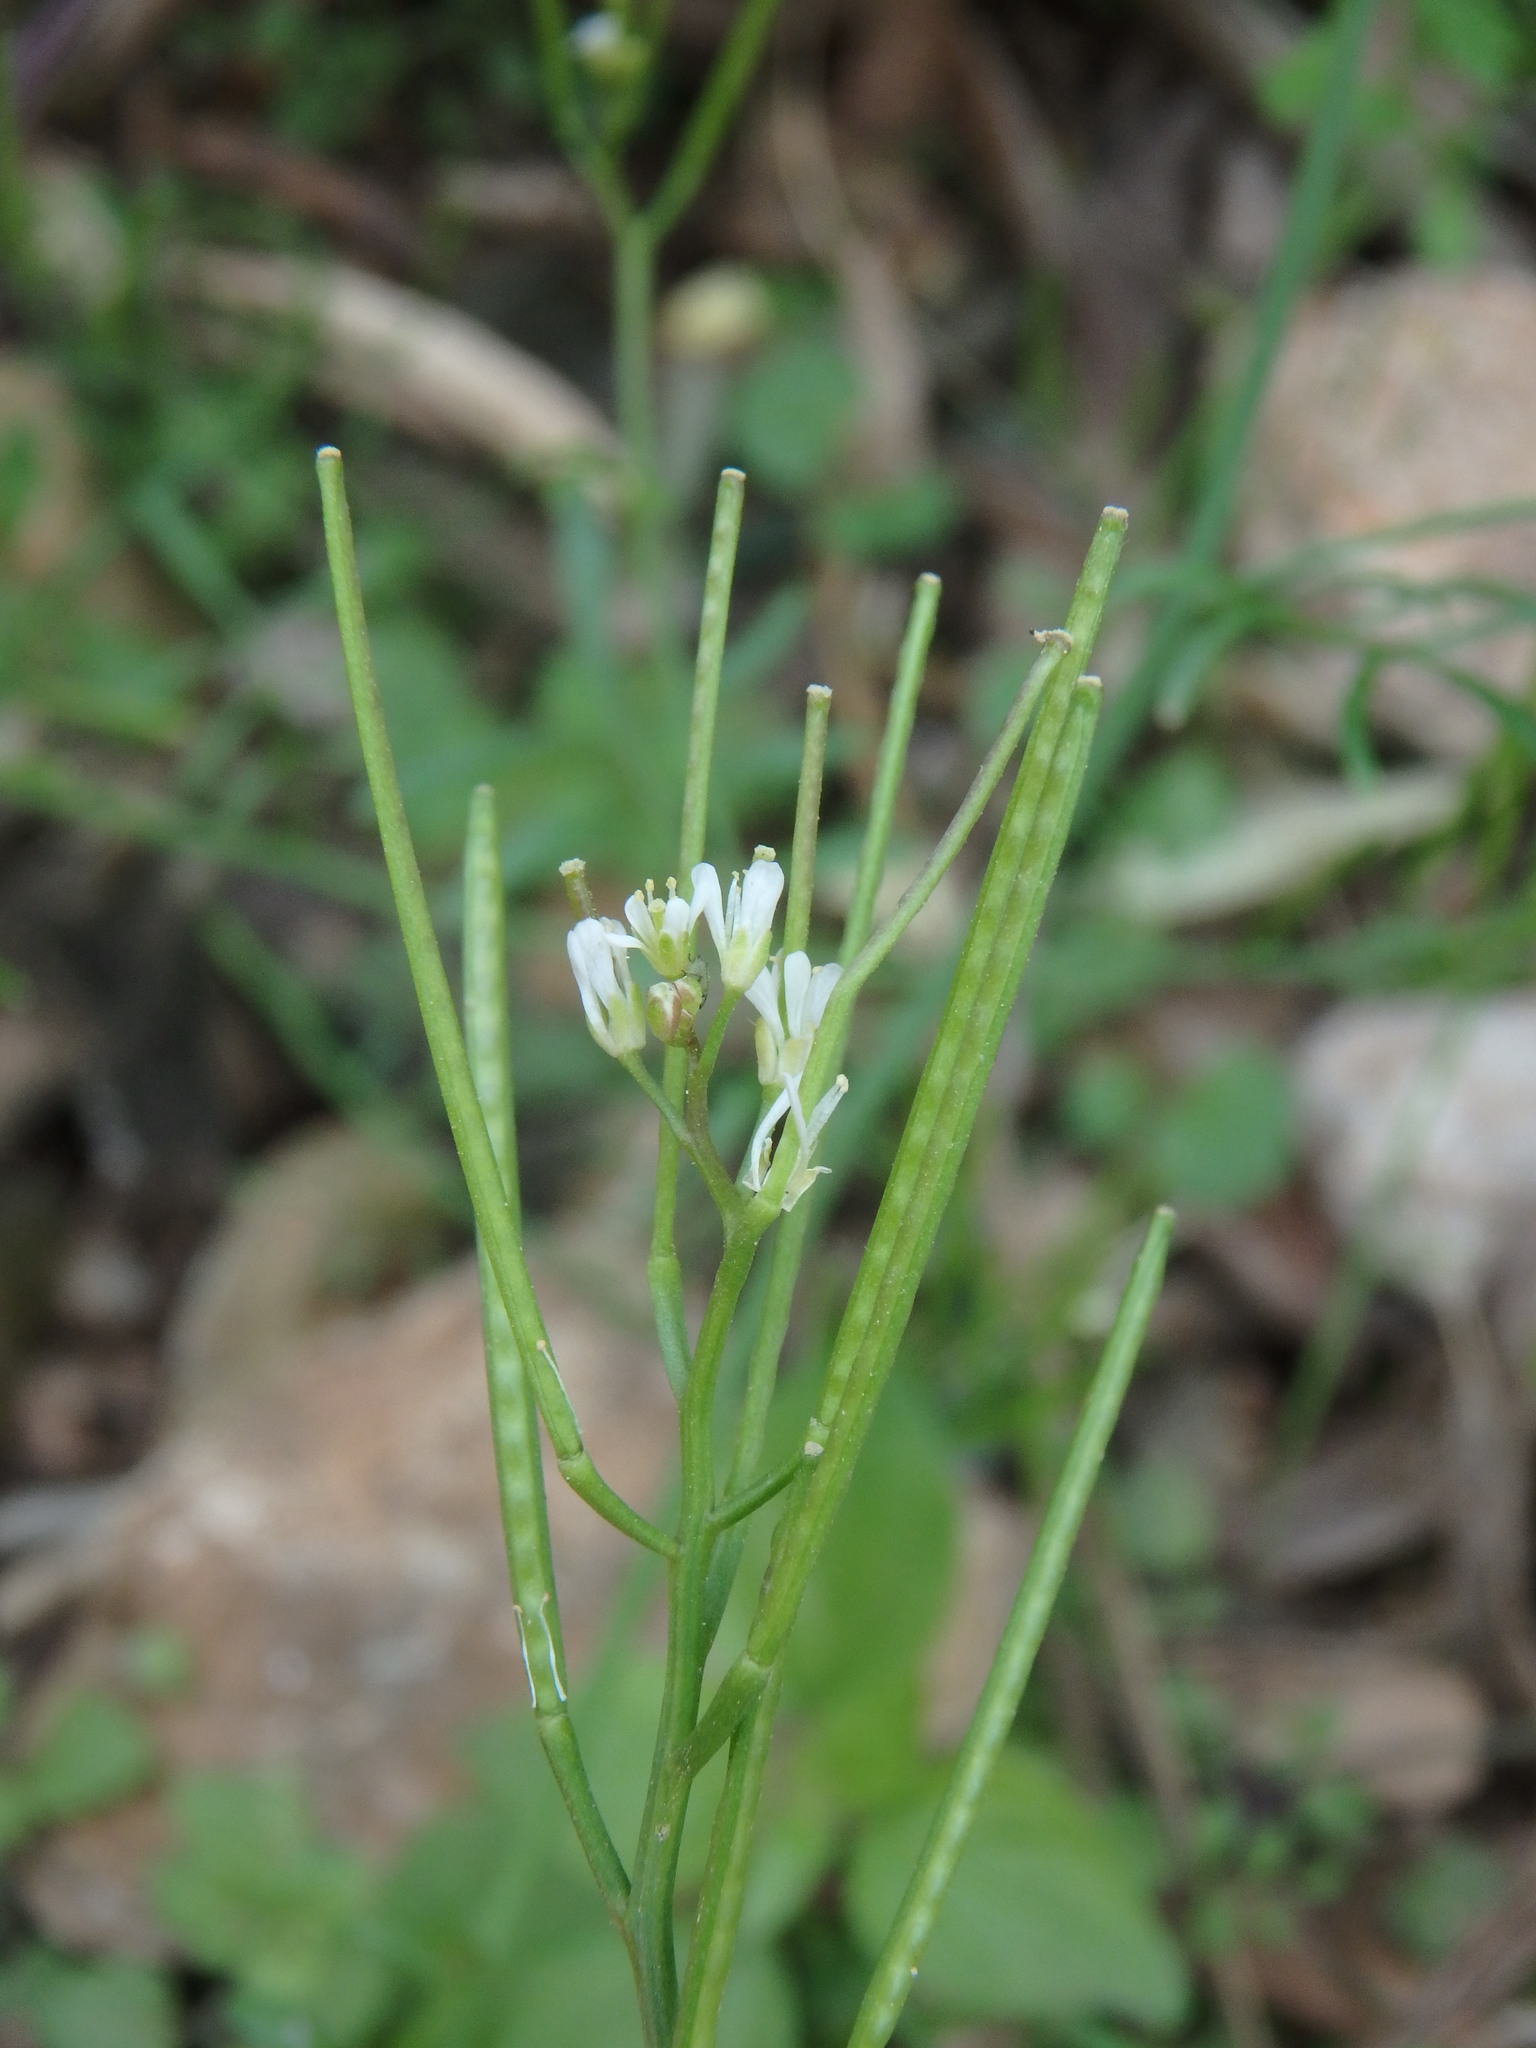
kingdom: Plantae
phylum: Tracheophyta
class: Magnoliopsida
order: Brassicales
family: Brassicaceae
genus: Cardamine
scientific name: Cardamine hirsuta
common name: Hairy bittercress
